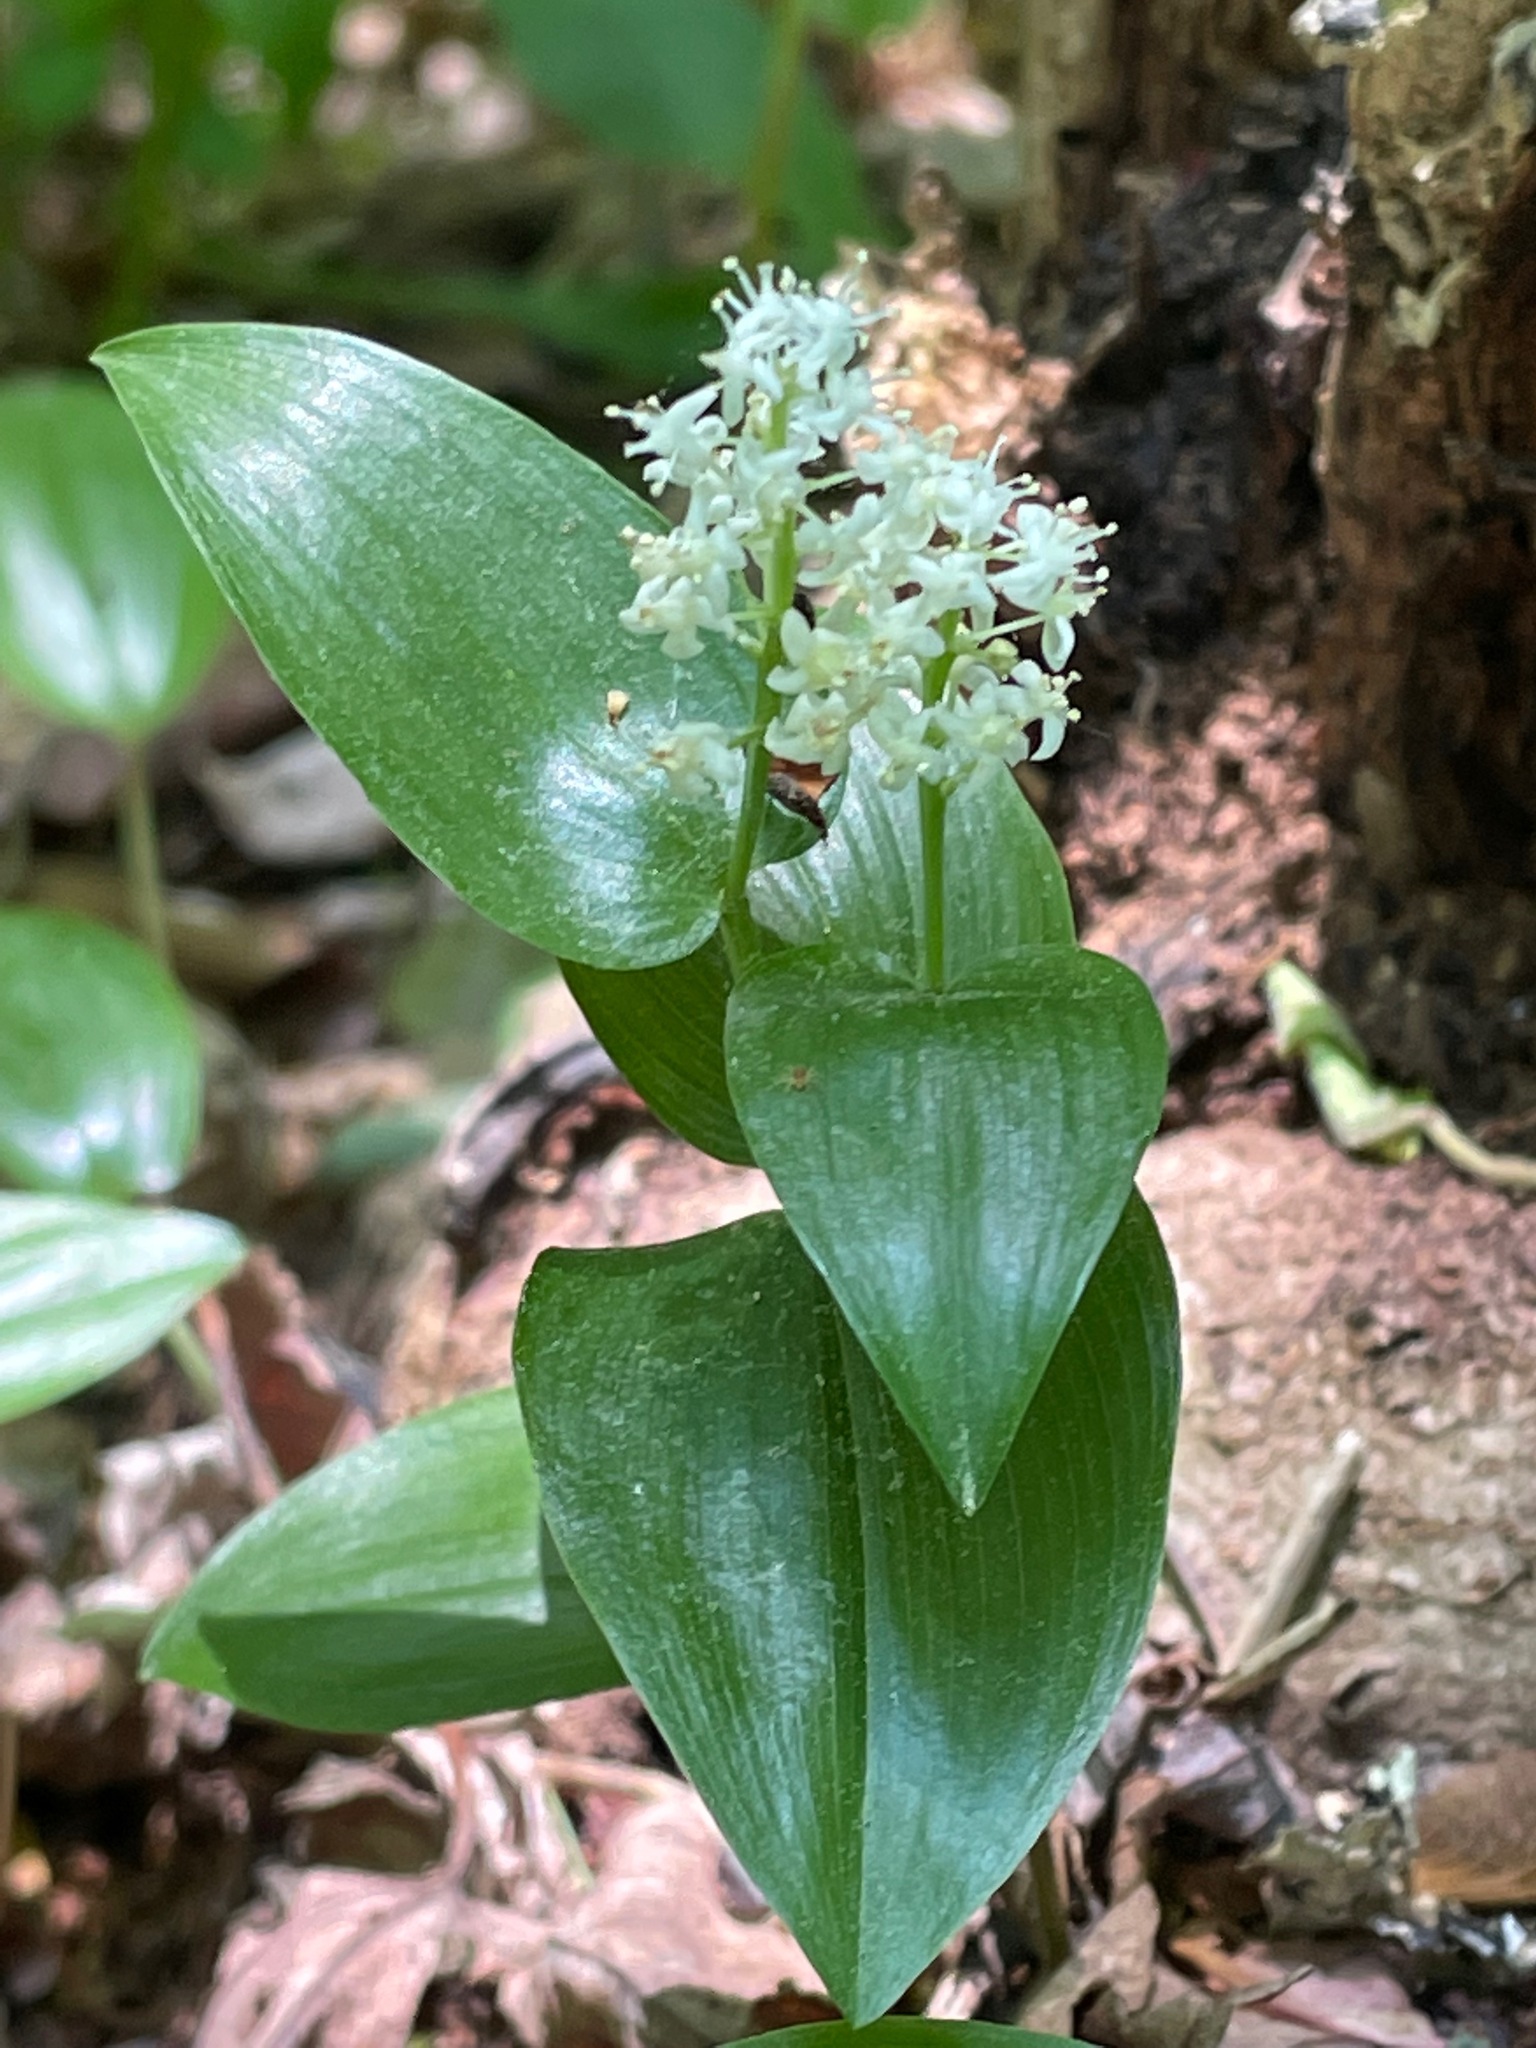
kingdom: Plantae
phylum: Tracheophyta
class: Liliopsida
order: Asparagales
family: Asparagaceae
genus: Maianthemum
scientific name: Maianthemum canadense
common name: False lily-of-the-valley
